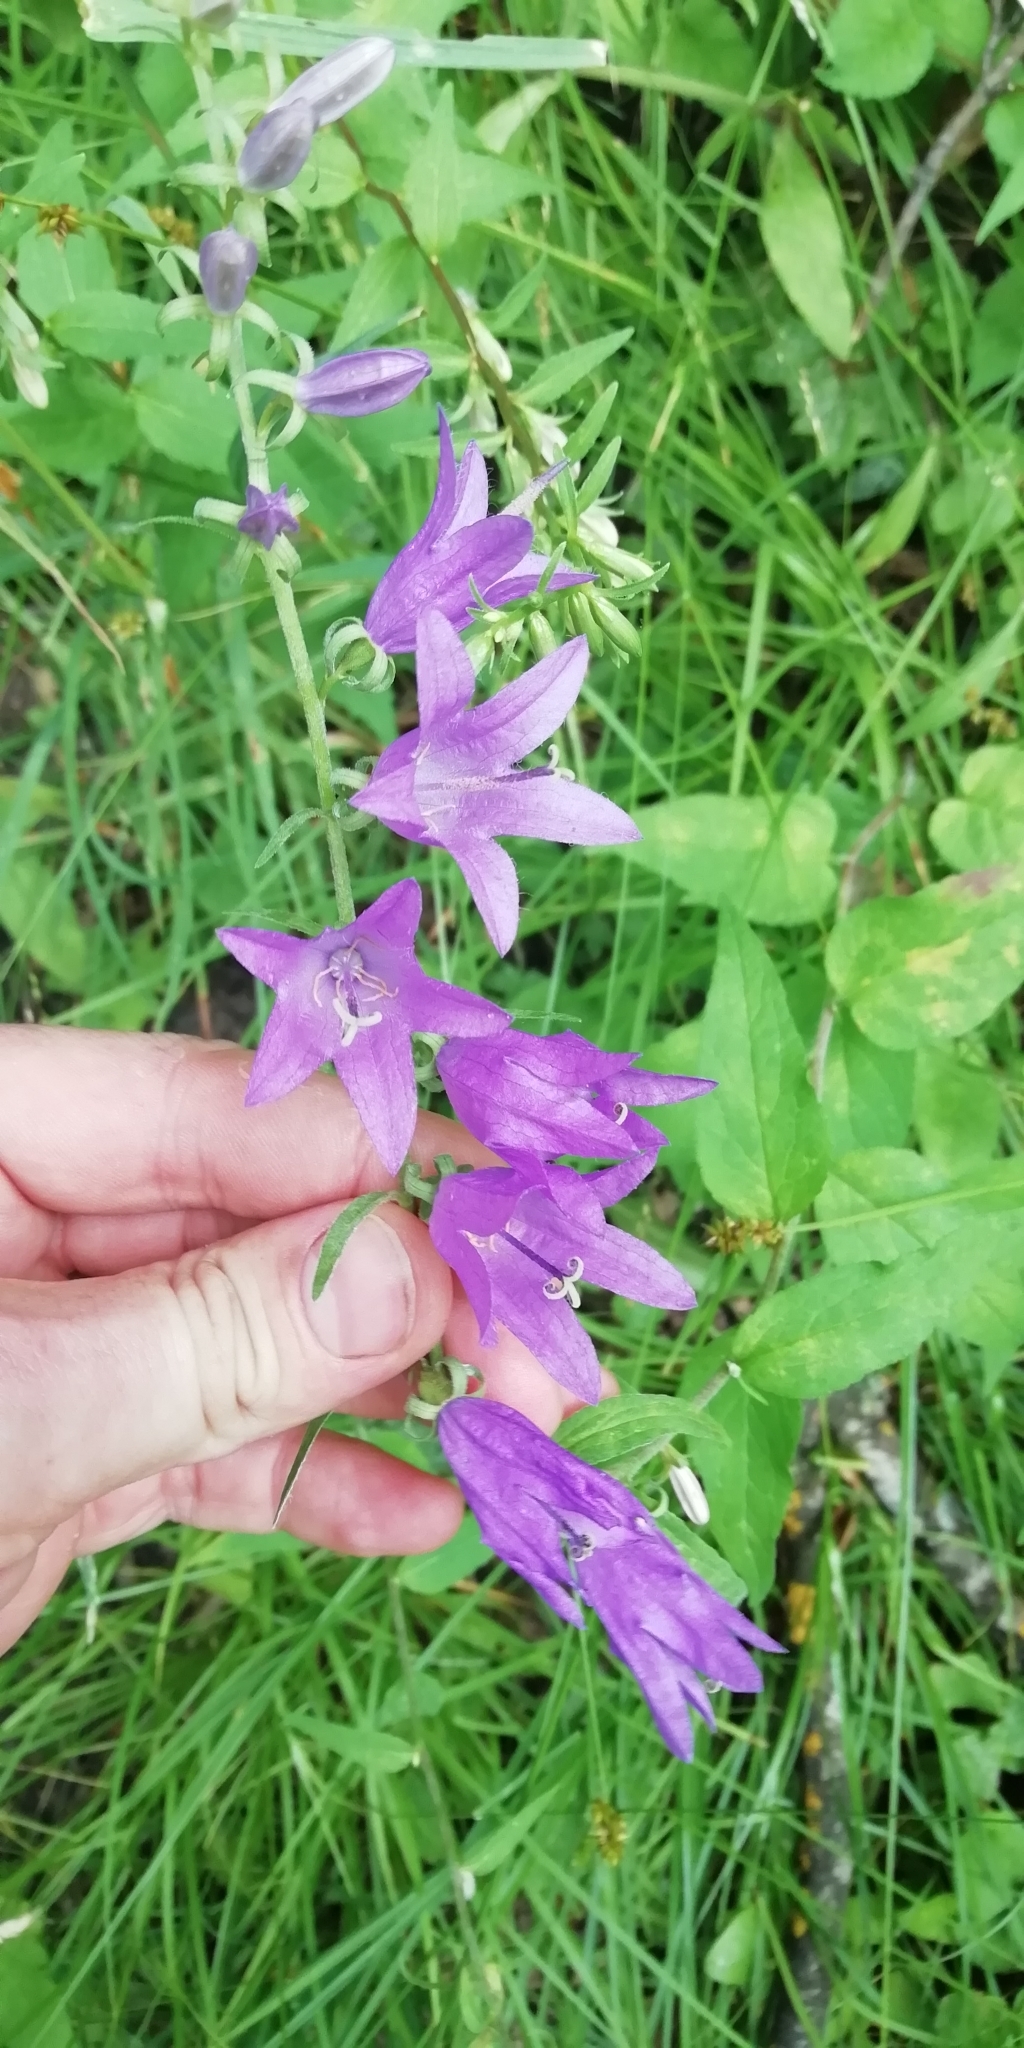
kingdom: Plantae
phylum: Tracheophyta
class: Magnoliopsida
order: Asterales
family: Campanulaceae
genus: Campanula
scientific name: Campanula rapunculoides
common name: Creeping bellflower
